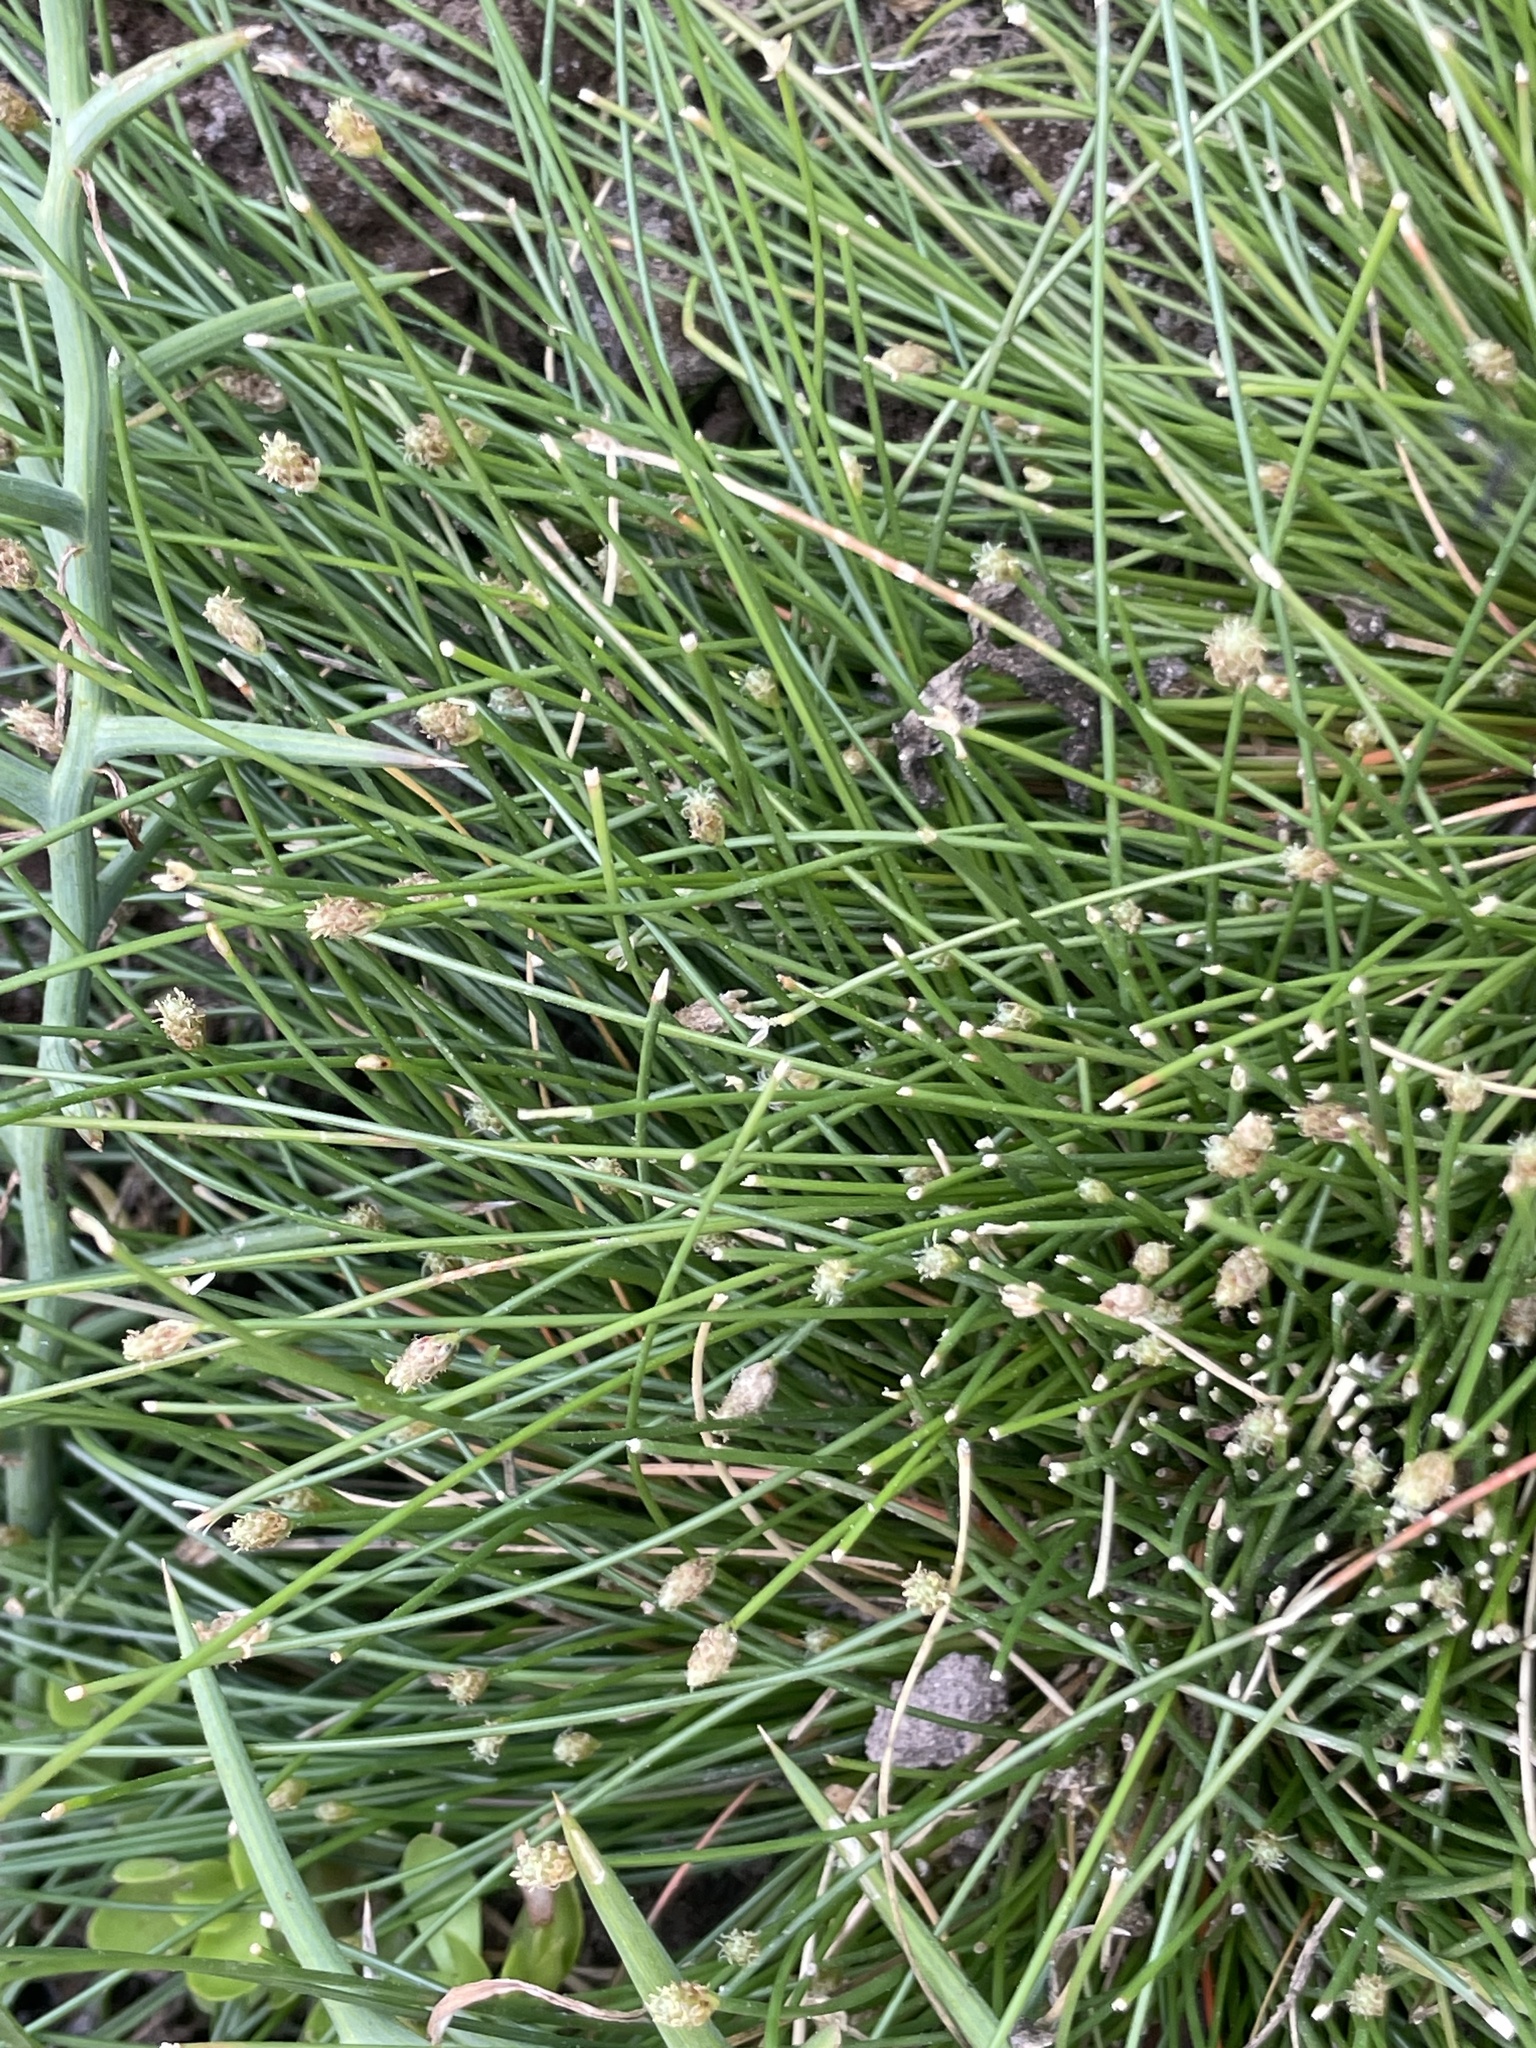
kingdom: Plantae
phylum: Tracheophyta
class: Liliopsida
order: Poales
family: Cyperaceae
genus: Eleocharis
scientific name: Eleocharis geniculata
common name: Canada spikesedge
